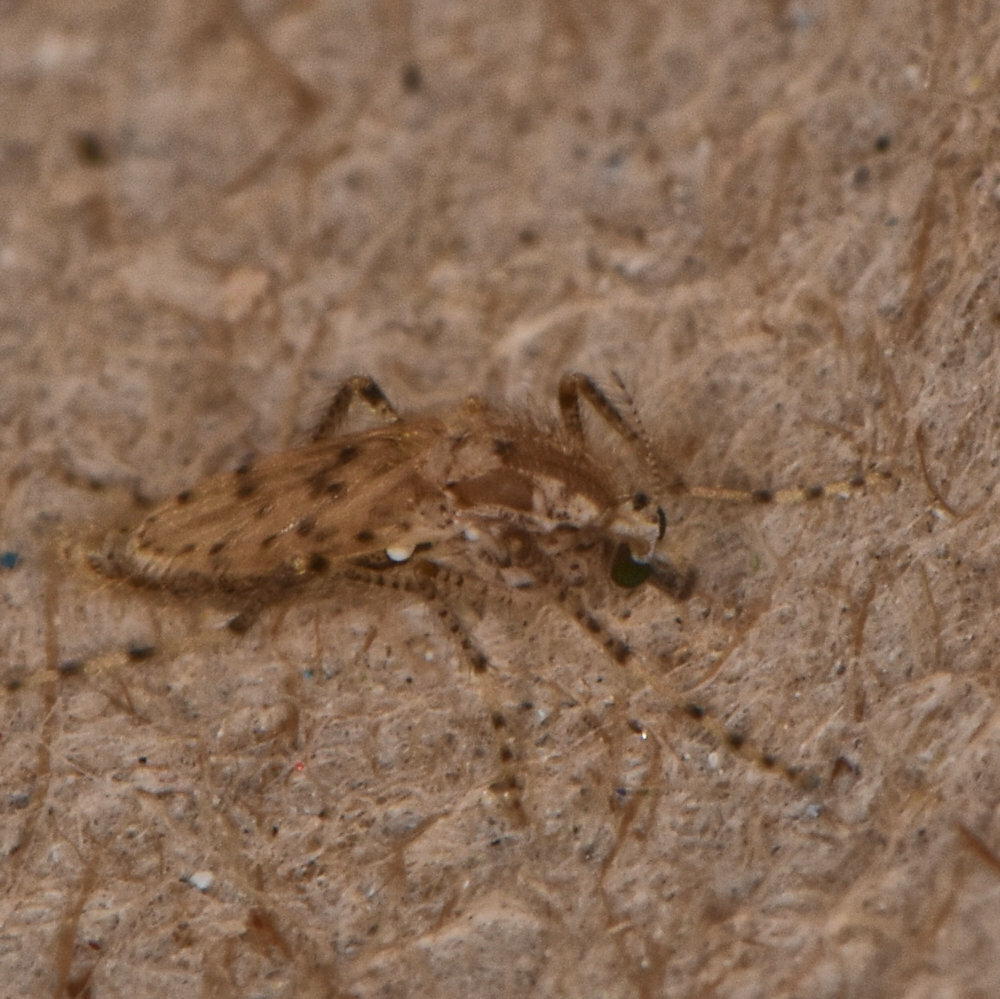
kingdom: Animalia
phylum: Arthropoda
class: Insecta
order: Diptera
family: Chaoboridae
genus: Chaoborus
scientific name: Chaoborus punctipennis
